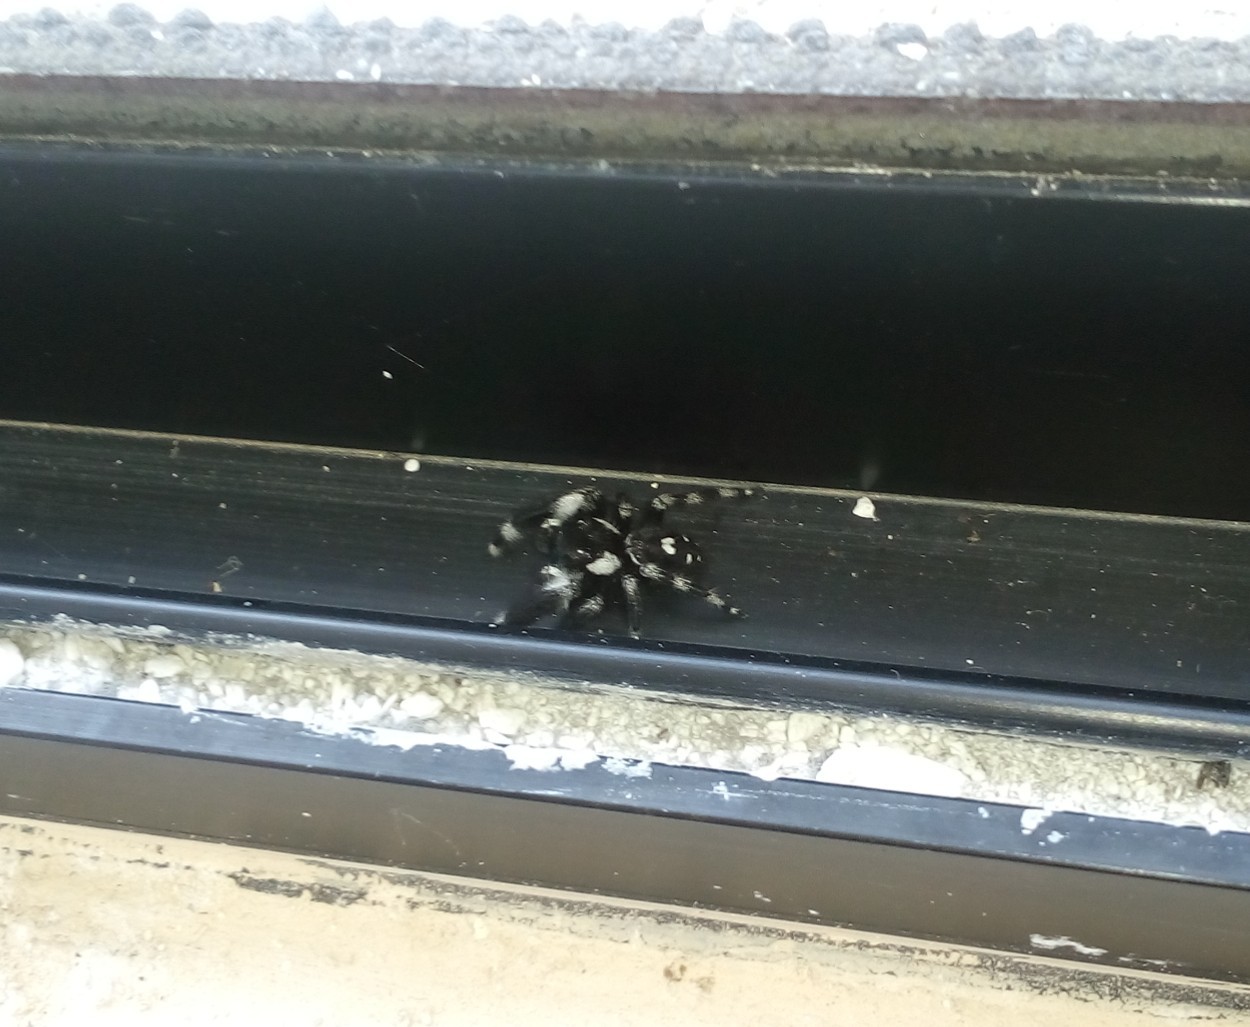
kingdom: Animalia
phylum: Arthropoda
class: Arachnida
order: Araneae
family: Salticidae
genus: Phidippus
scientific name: Phidippus audax
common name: Bold jumper
